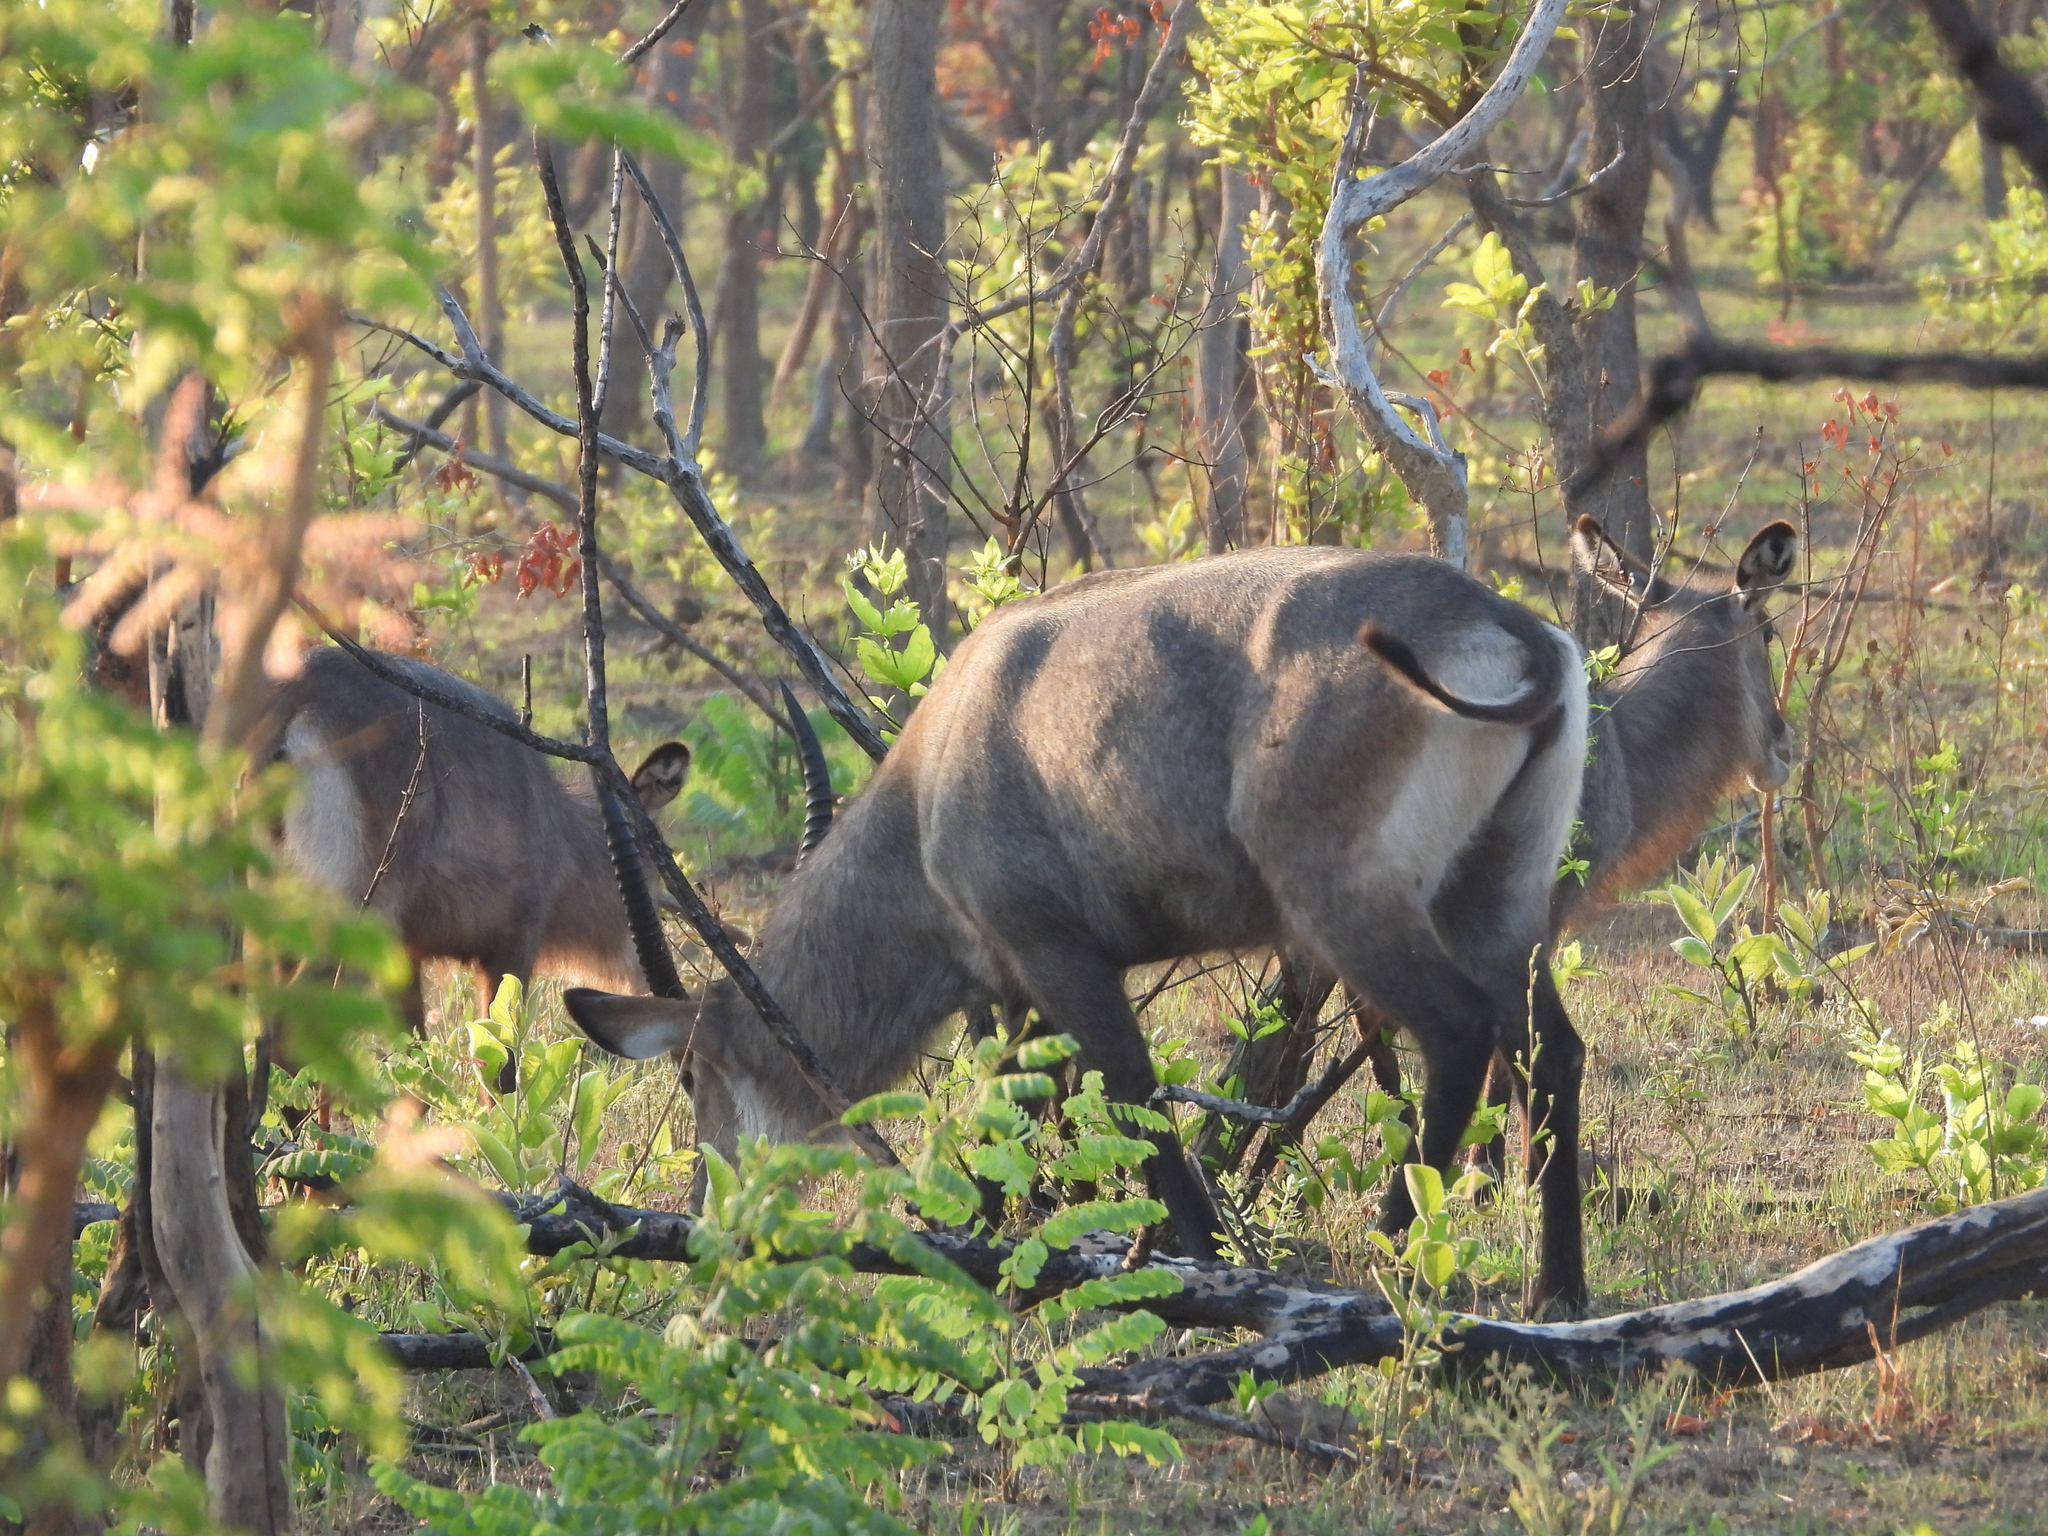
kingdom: Animalia
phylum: Chordata
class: Mammalia
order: Artiodactyla
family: Bovidae
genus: Kobus
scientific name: Kobus ellipsiprymnus
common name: Waterbuck
